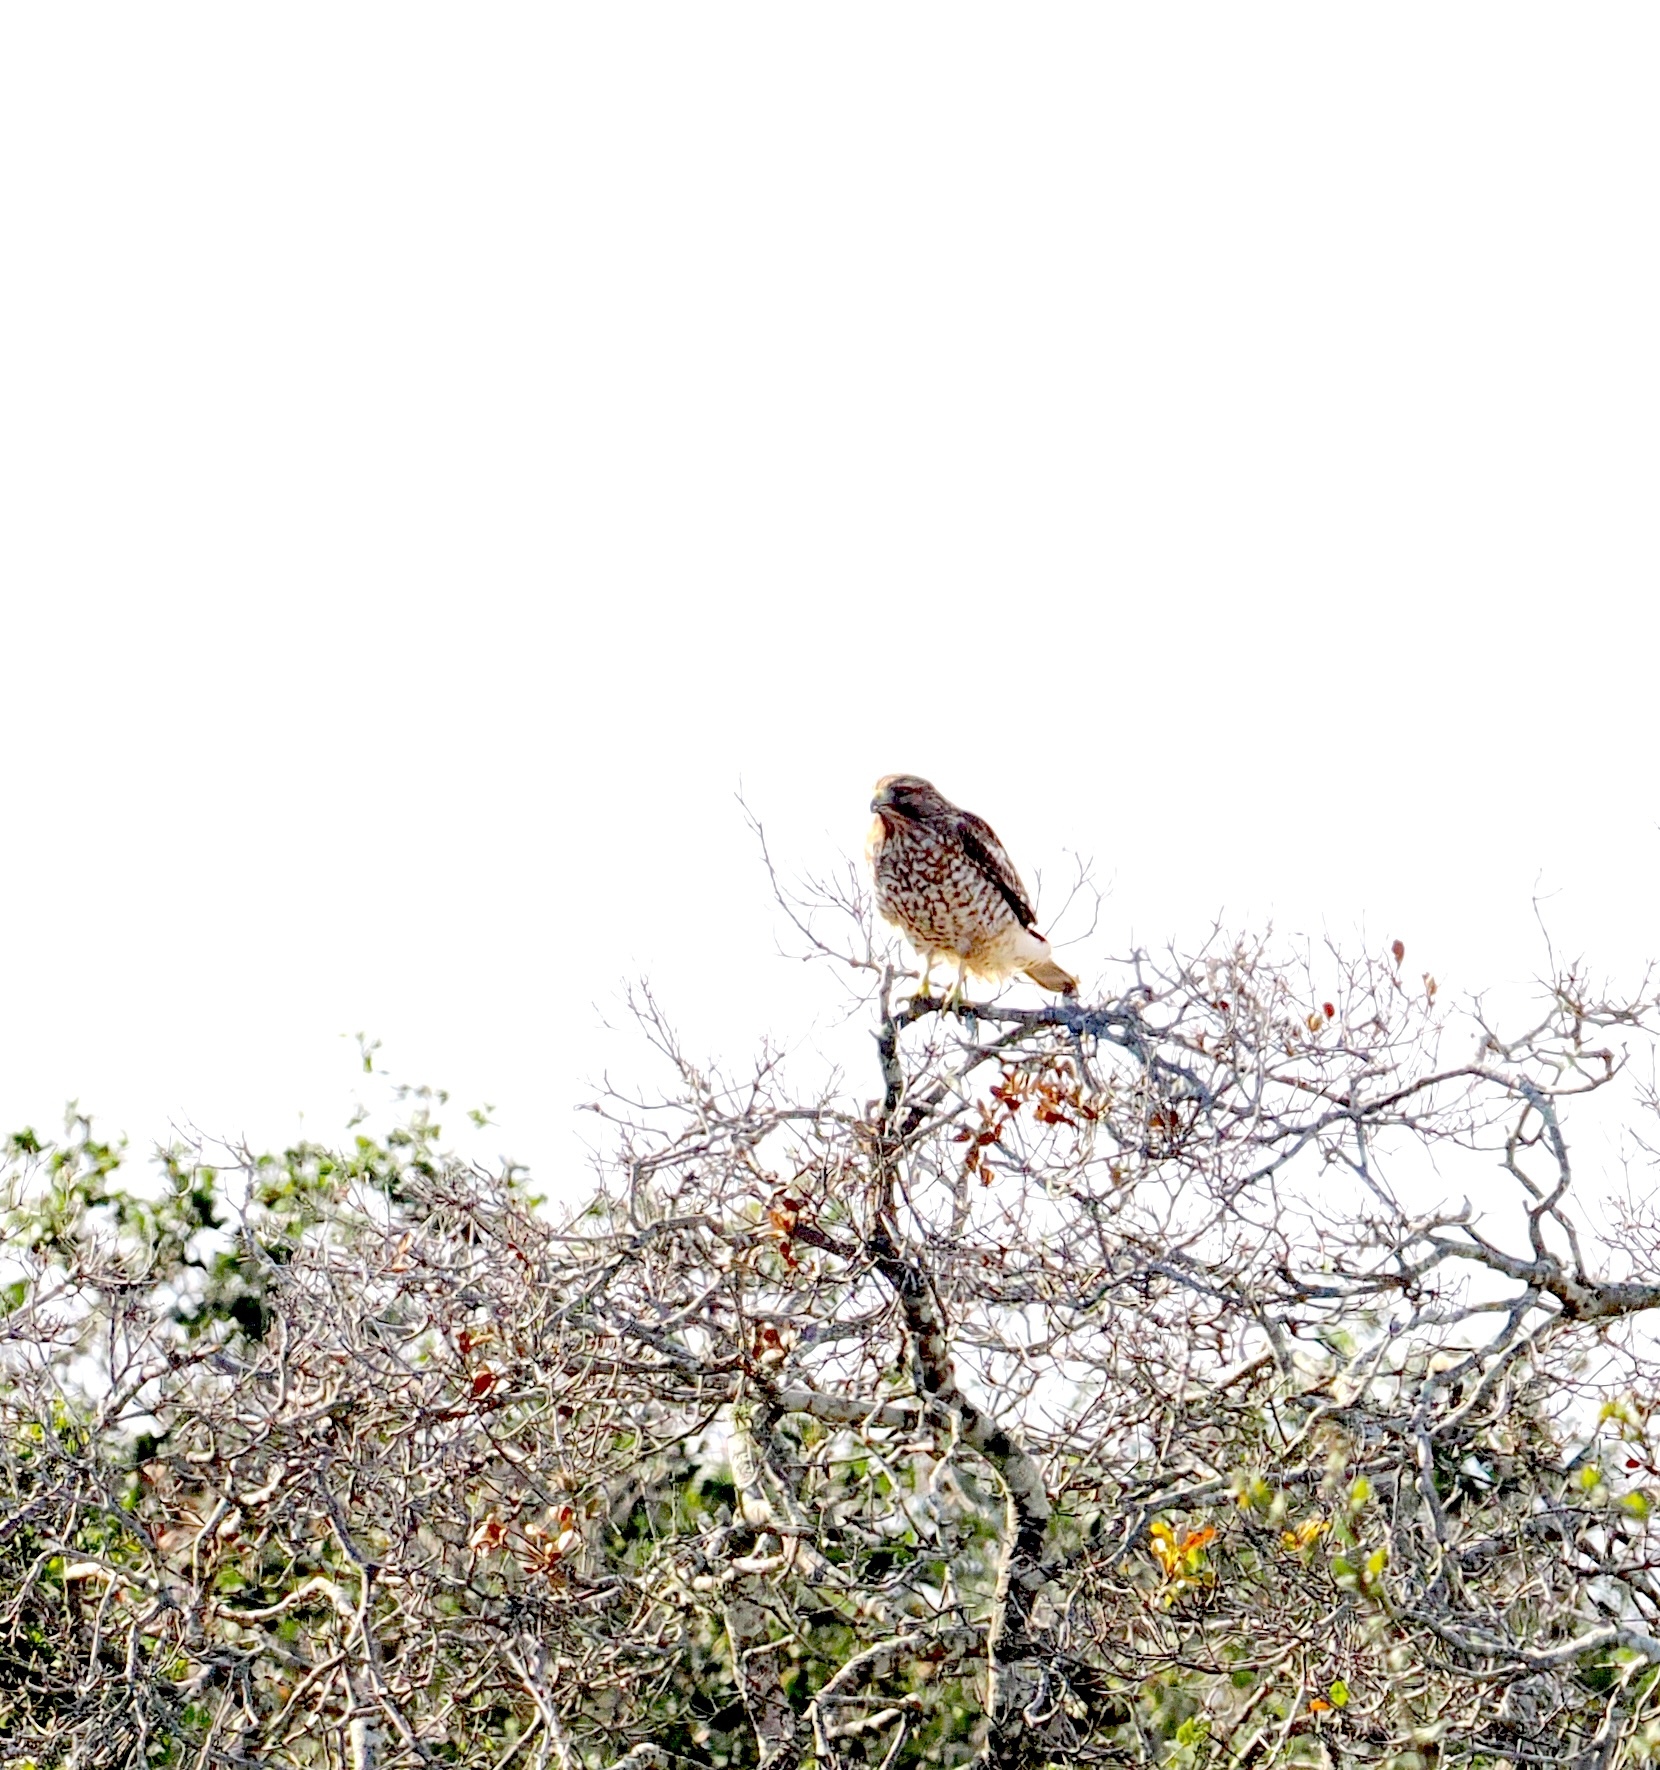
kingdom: Animalia
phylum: Chordata
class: Aves
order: Accipitriformes
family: Accipitridae
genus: Buteo
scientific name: Buteo lineatus
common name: Red-shouldered hawk
